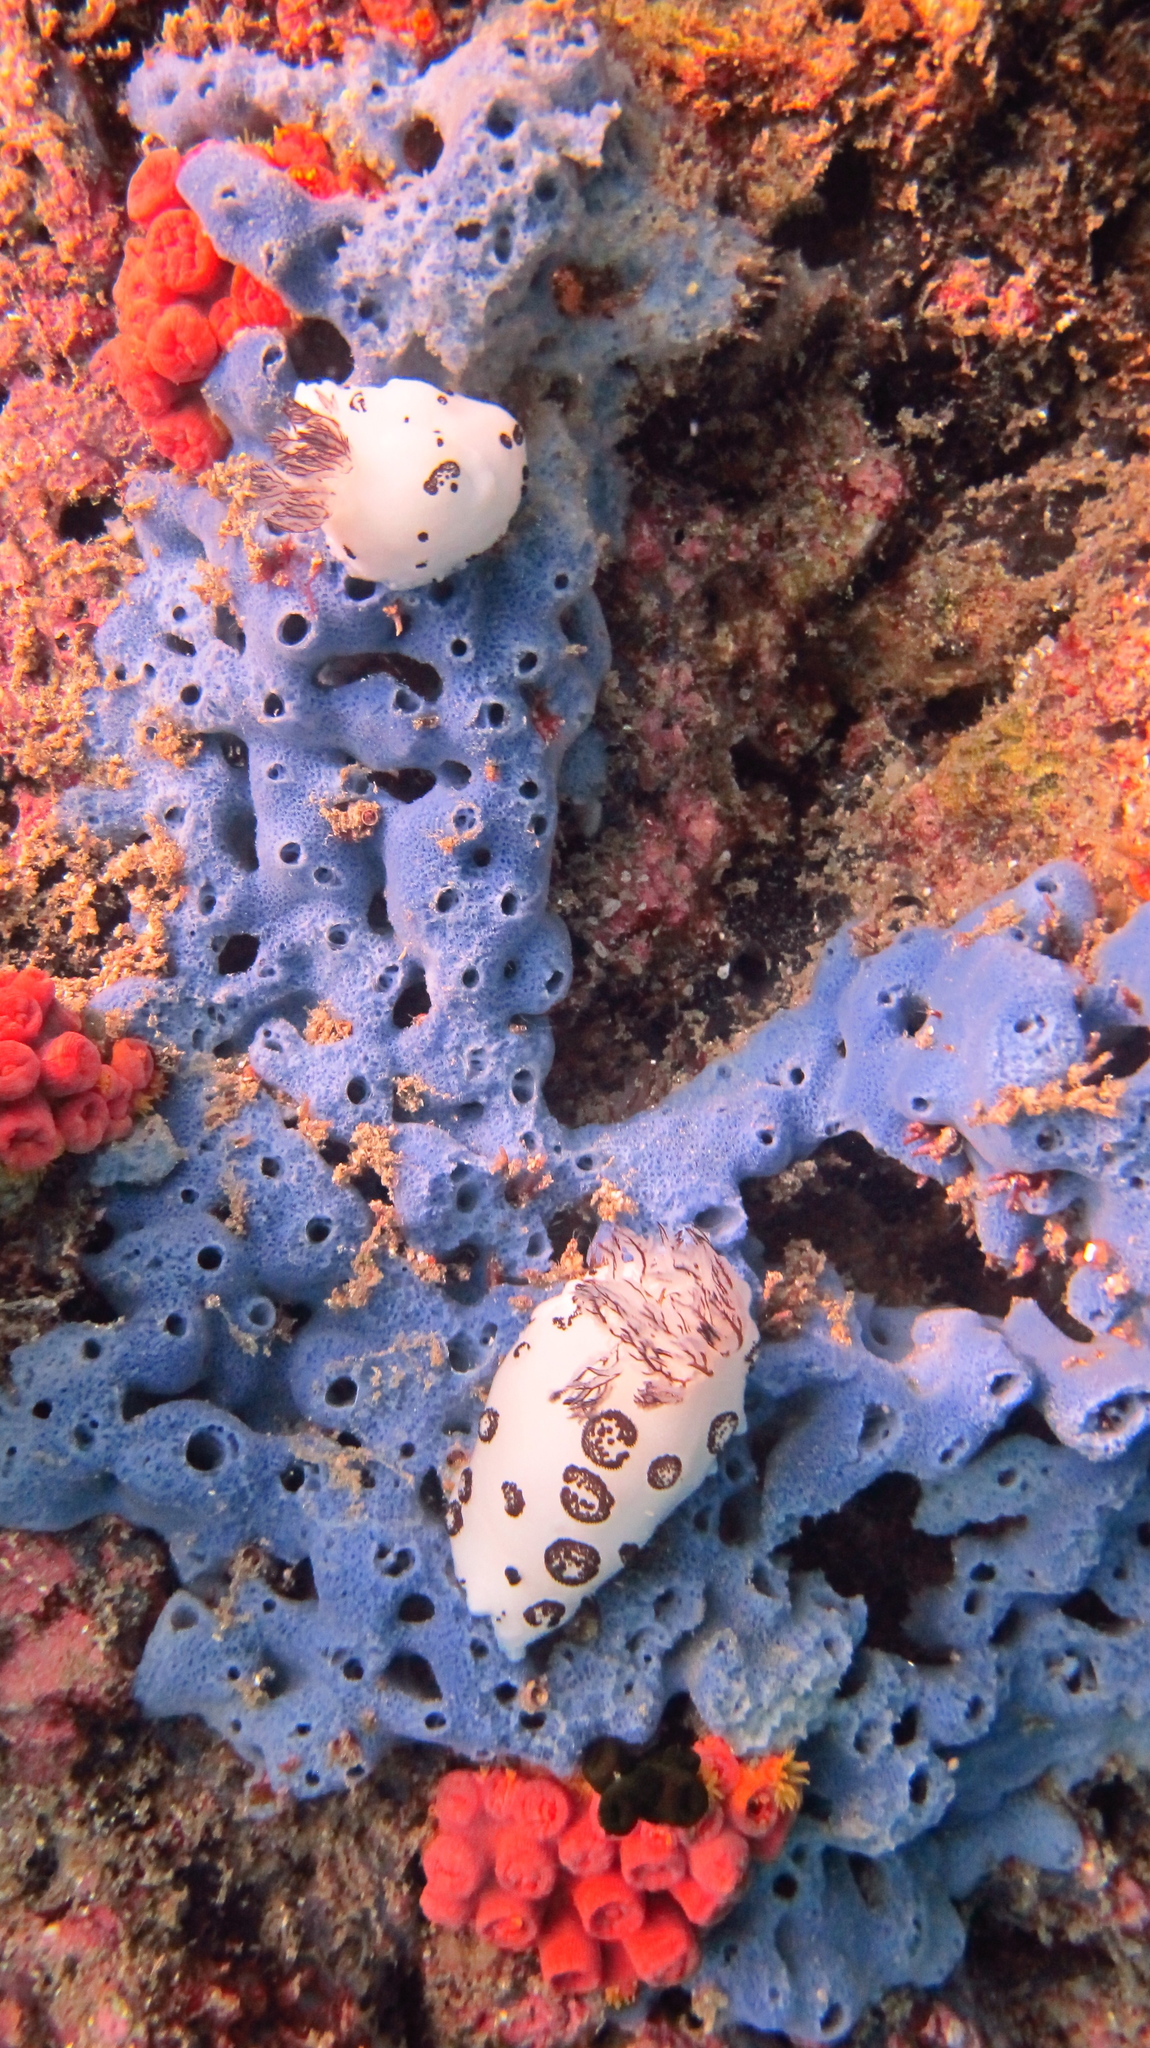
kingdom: Animalia
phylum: Mollusca
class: Gastropoda
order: Nudibranchia
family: Discodorididae
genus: Jorunna
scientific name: Jorunna funebris
